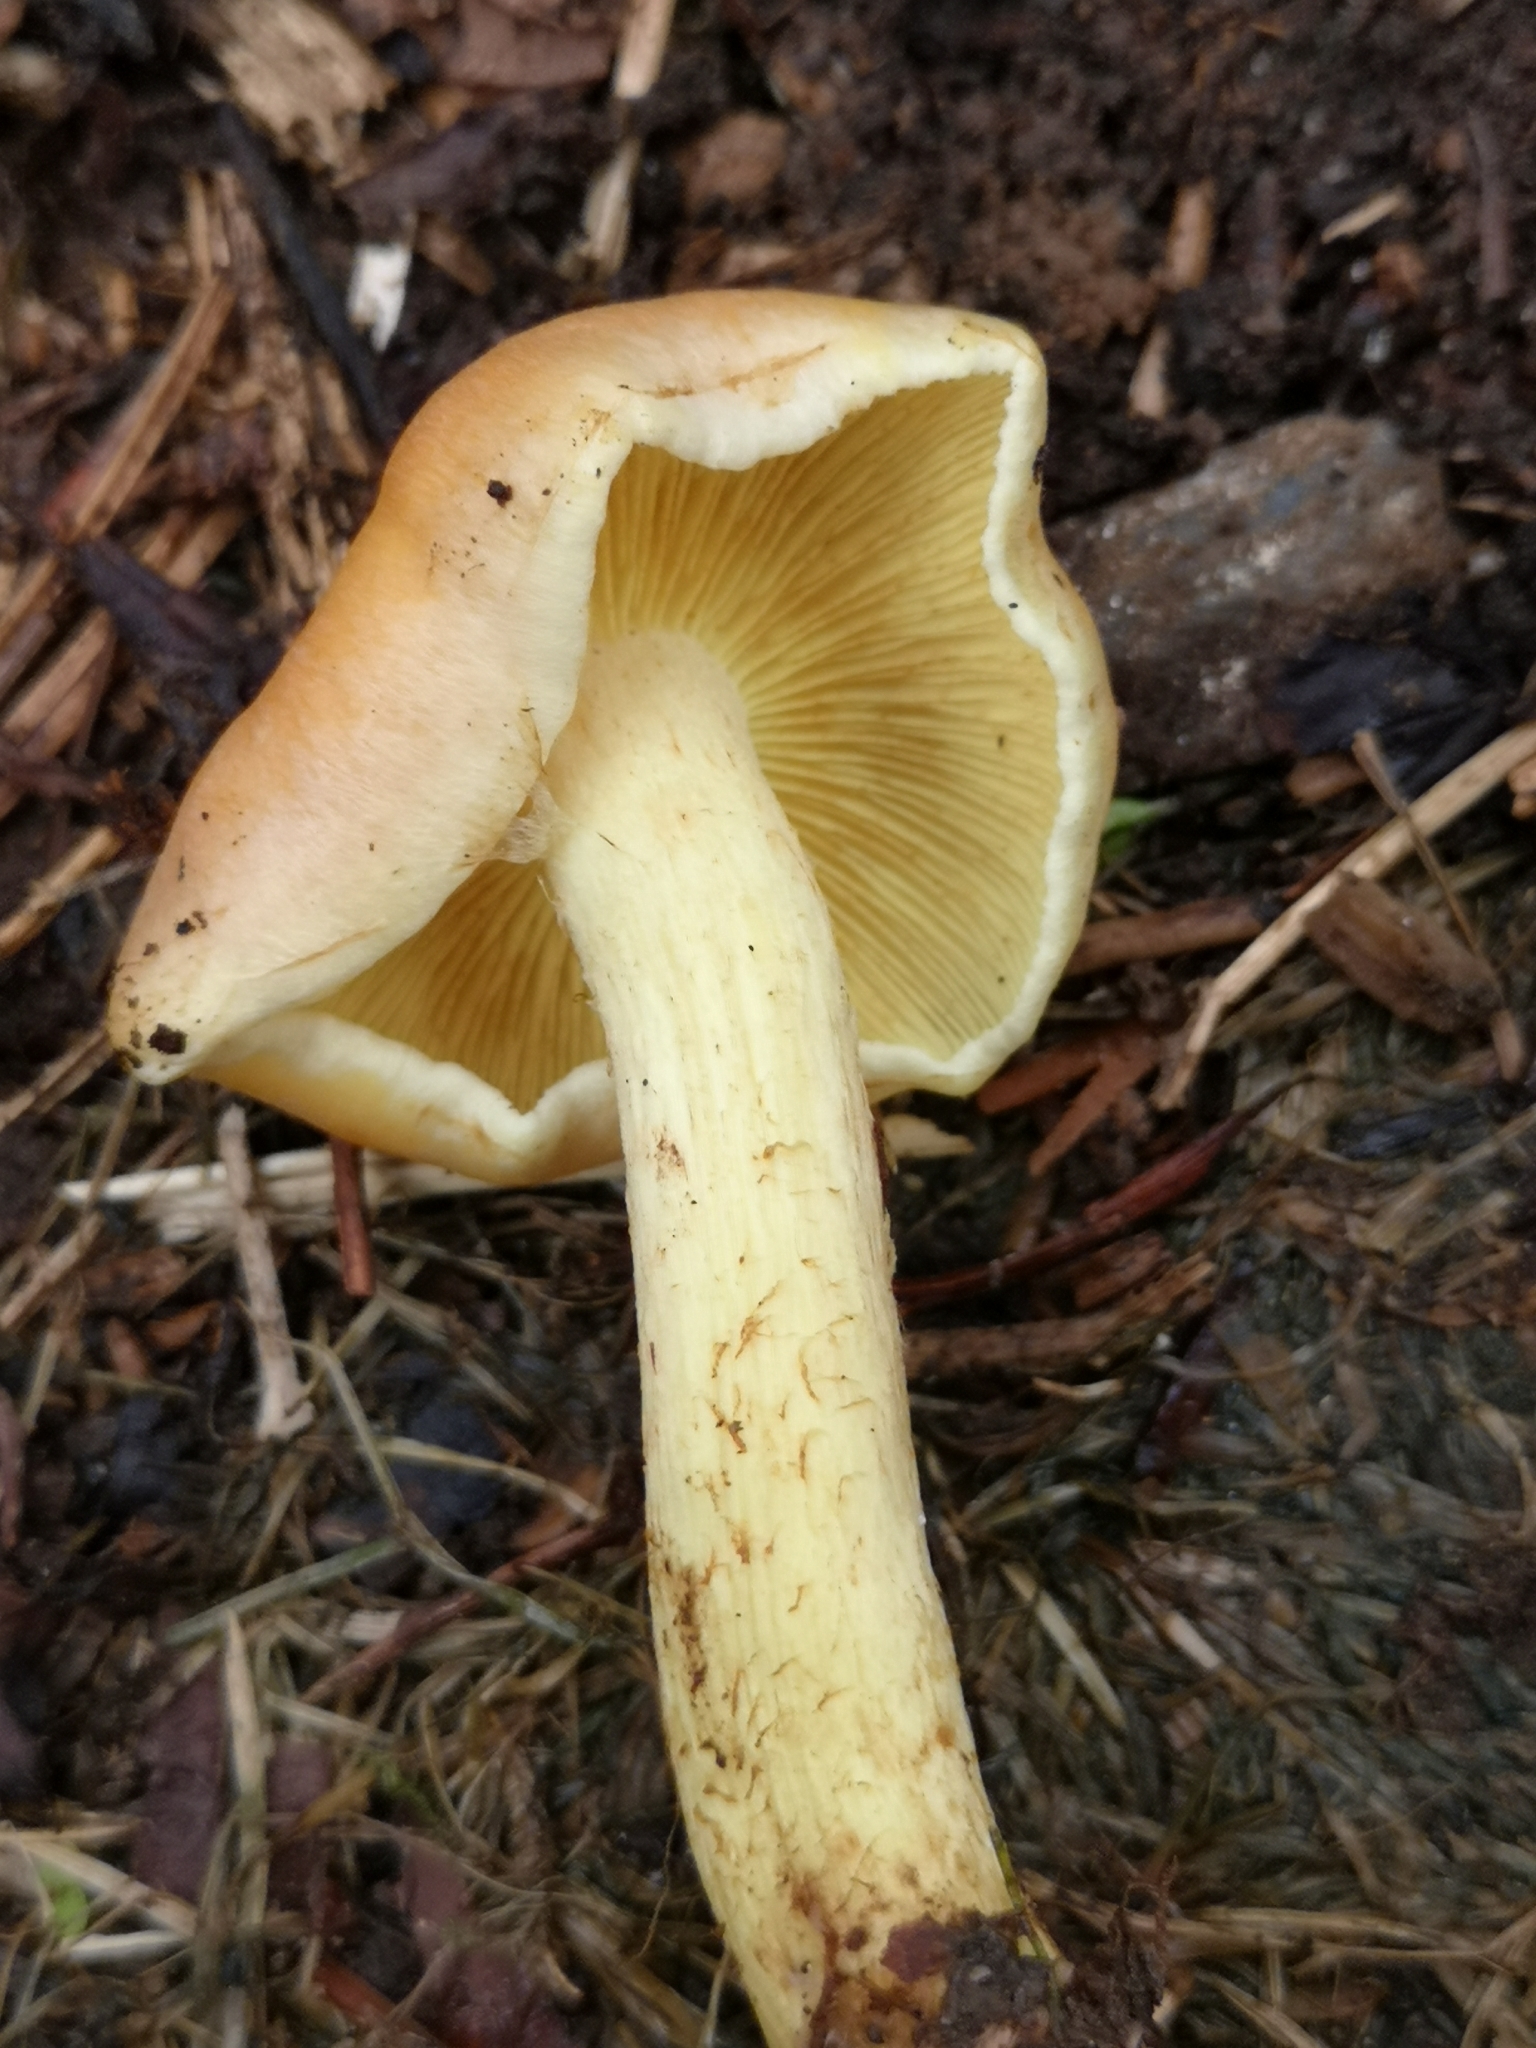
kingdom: Fungi
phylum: Basidiomycota
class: Agaricomycetes
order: Agaricales
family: Strophariaceae
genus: Hypholoma
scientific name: Hypholoma fasciculare
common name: Sulphur tuft
